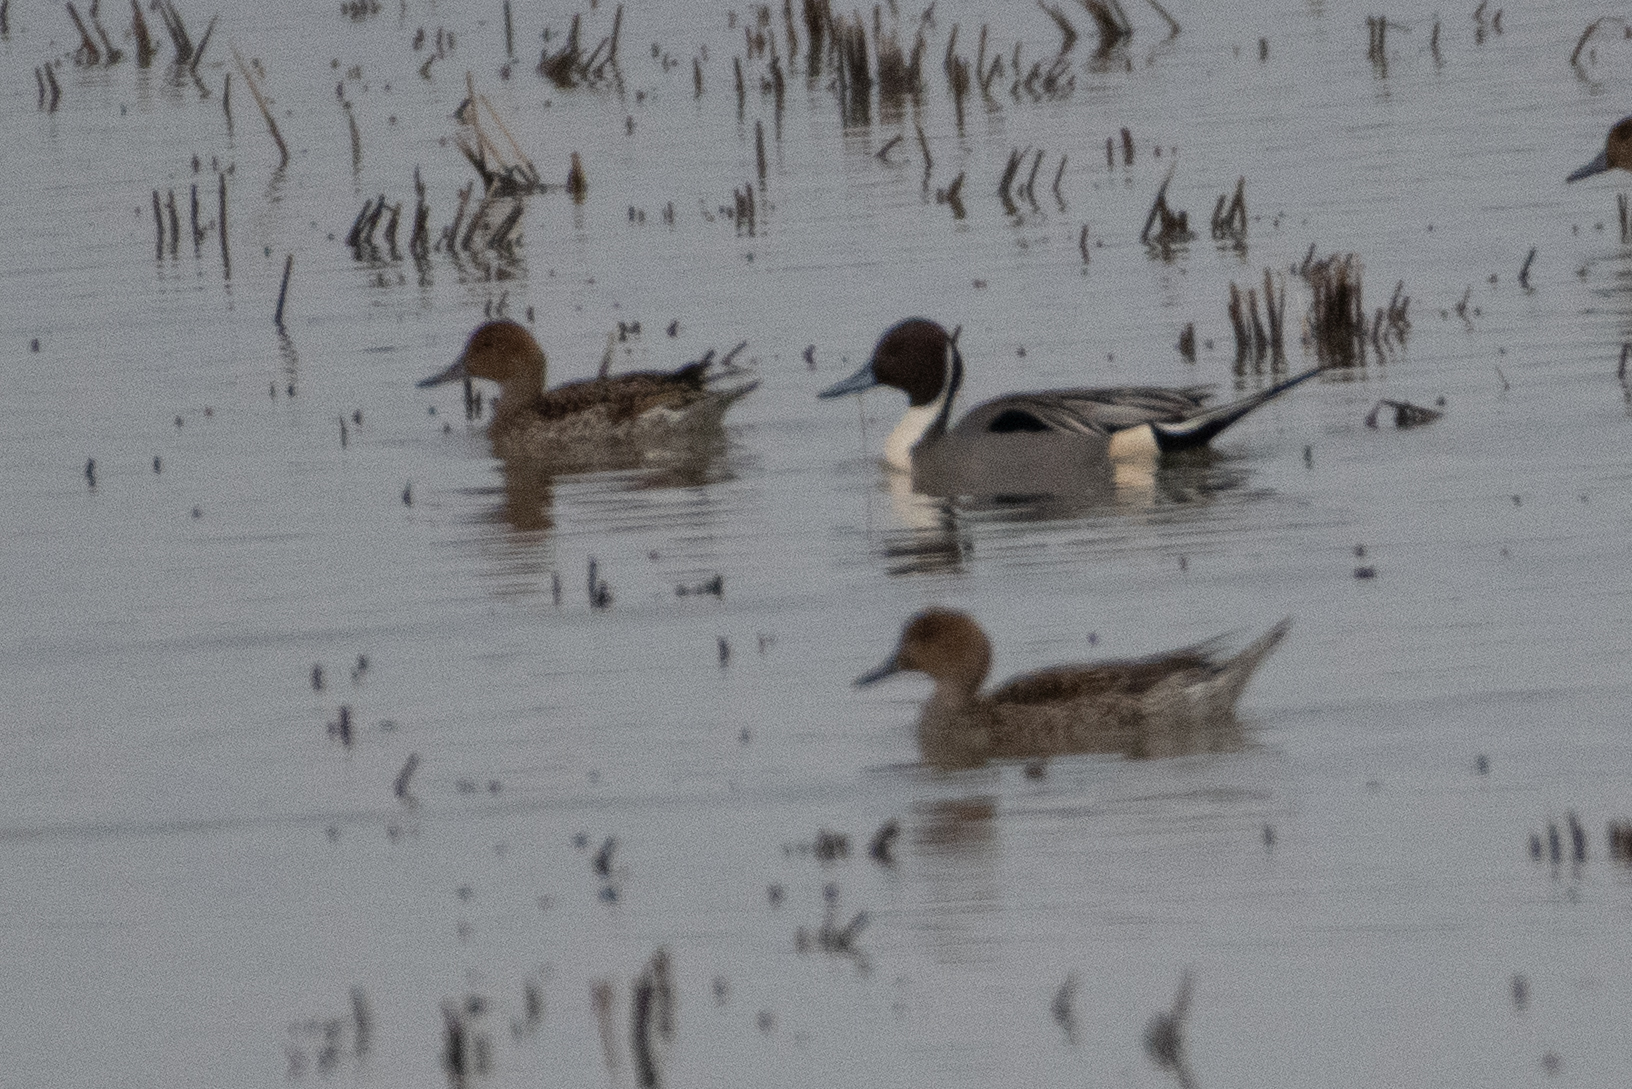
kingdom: Animalia
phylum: Chordata
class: Aves
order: Anseriformes
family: Anatidae
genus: Anas
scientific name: Anas acuta
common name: Northern pintail
